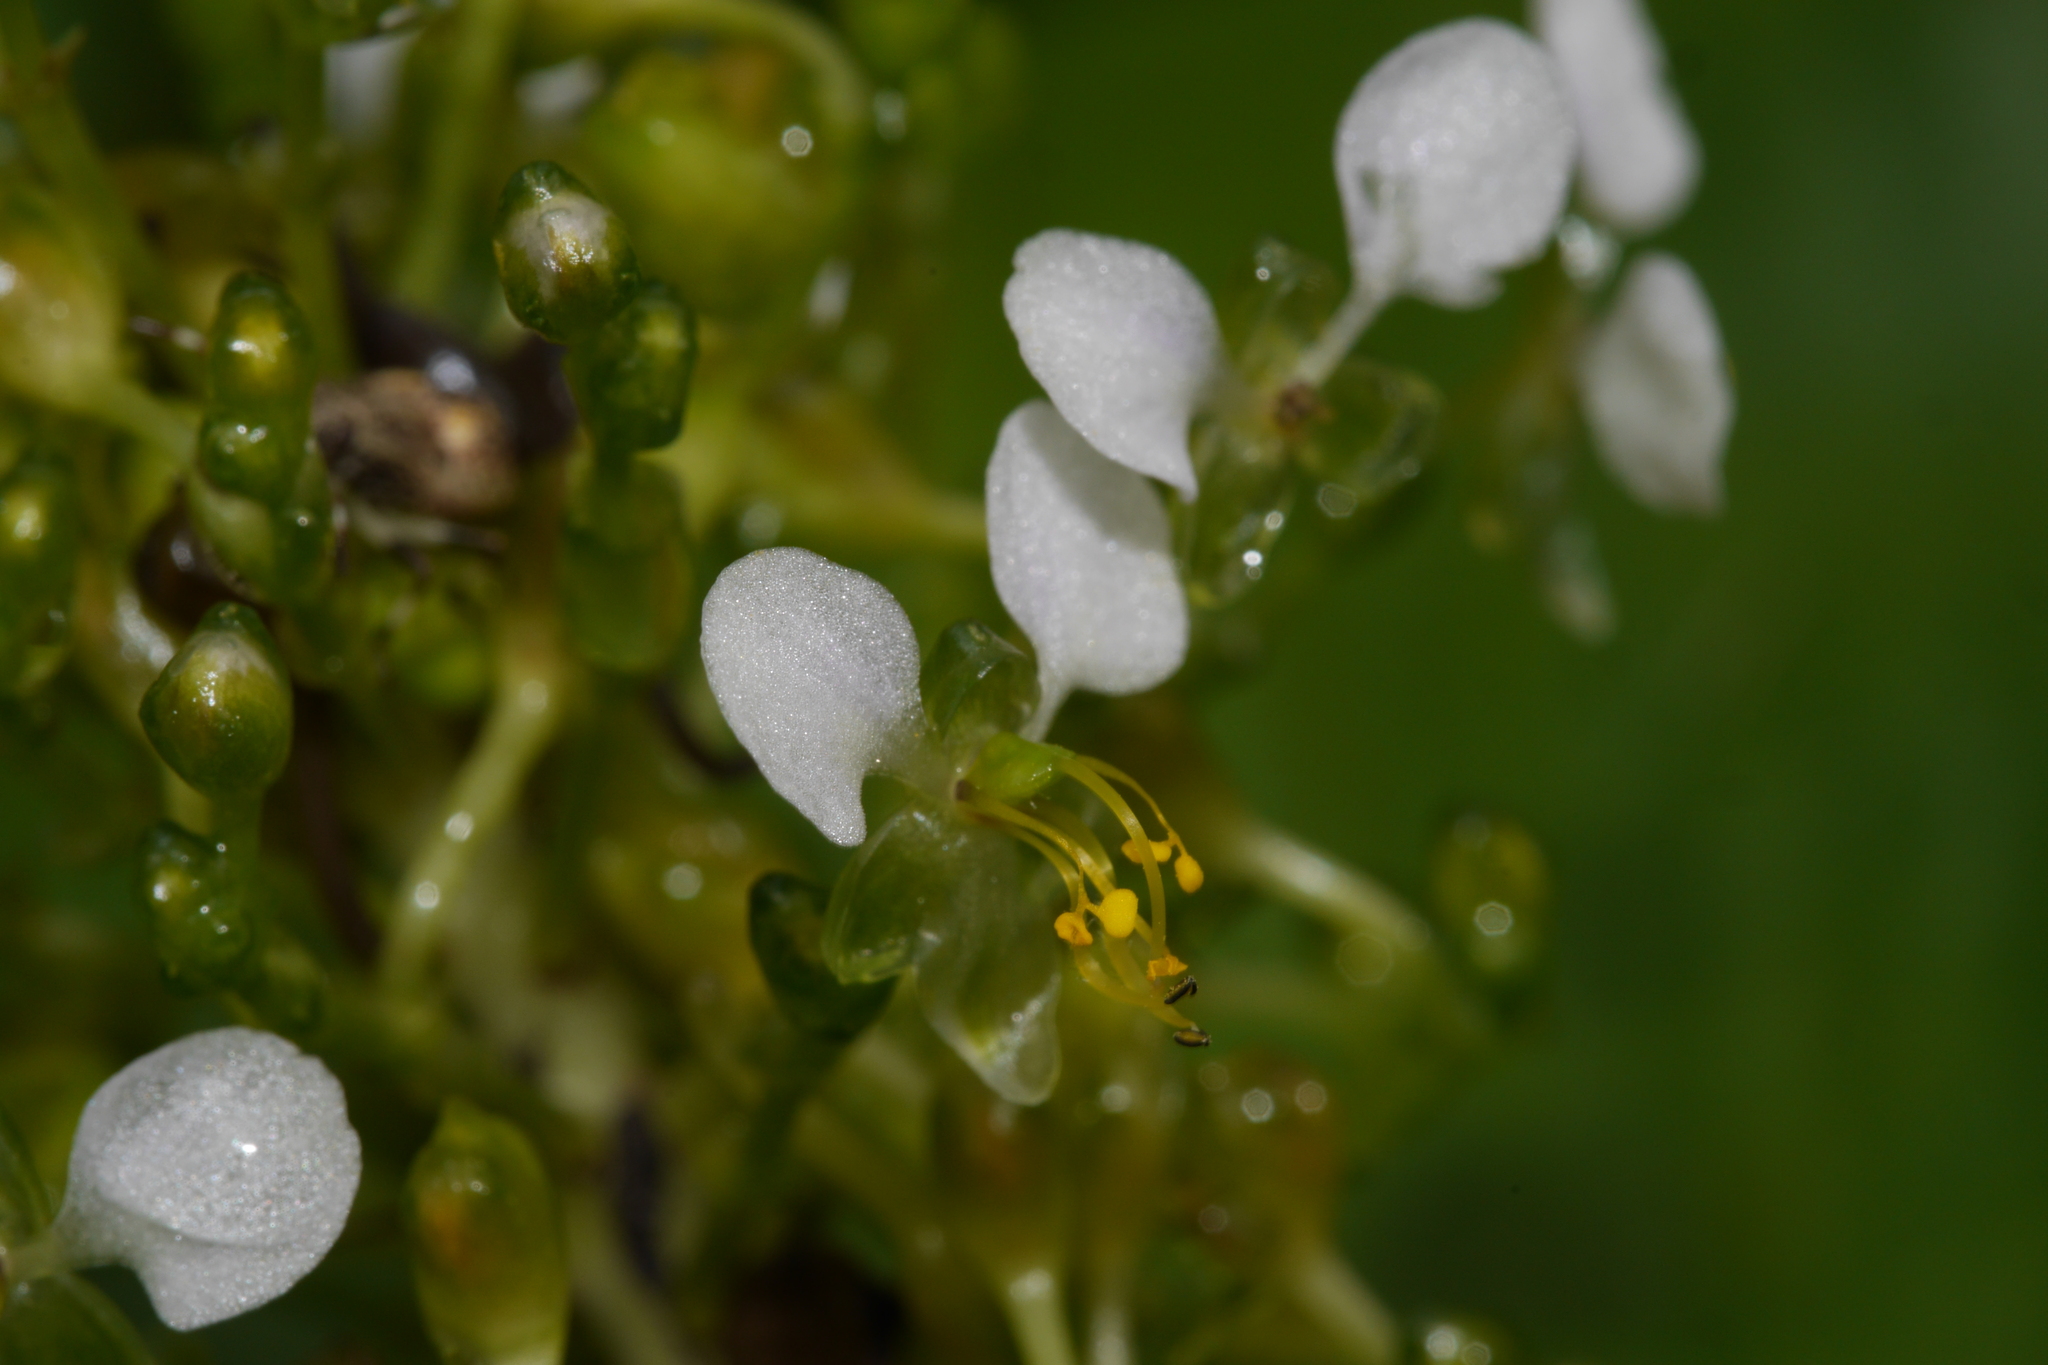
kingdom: Plantae
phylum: Tracheophyta
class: Liliopsida
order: Commelinales
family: Commelinaceae
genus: Aneilema
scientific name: Aneilema umbrosum
